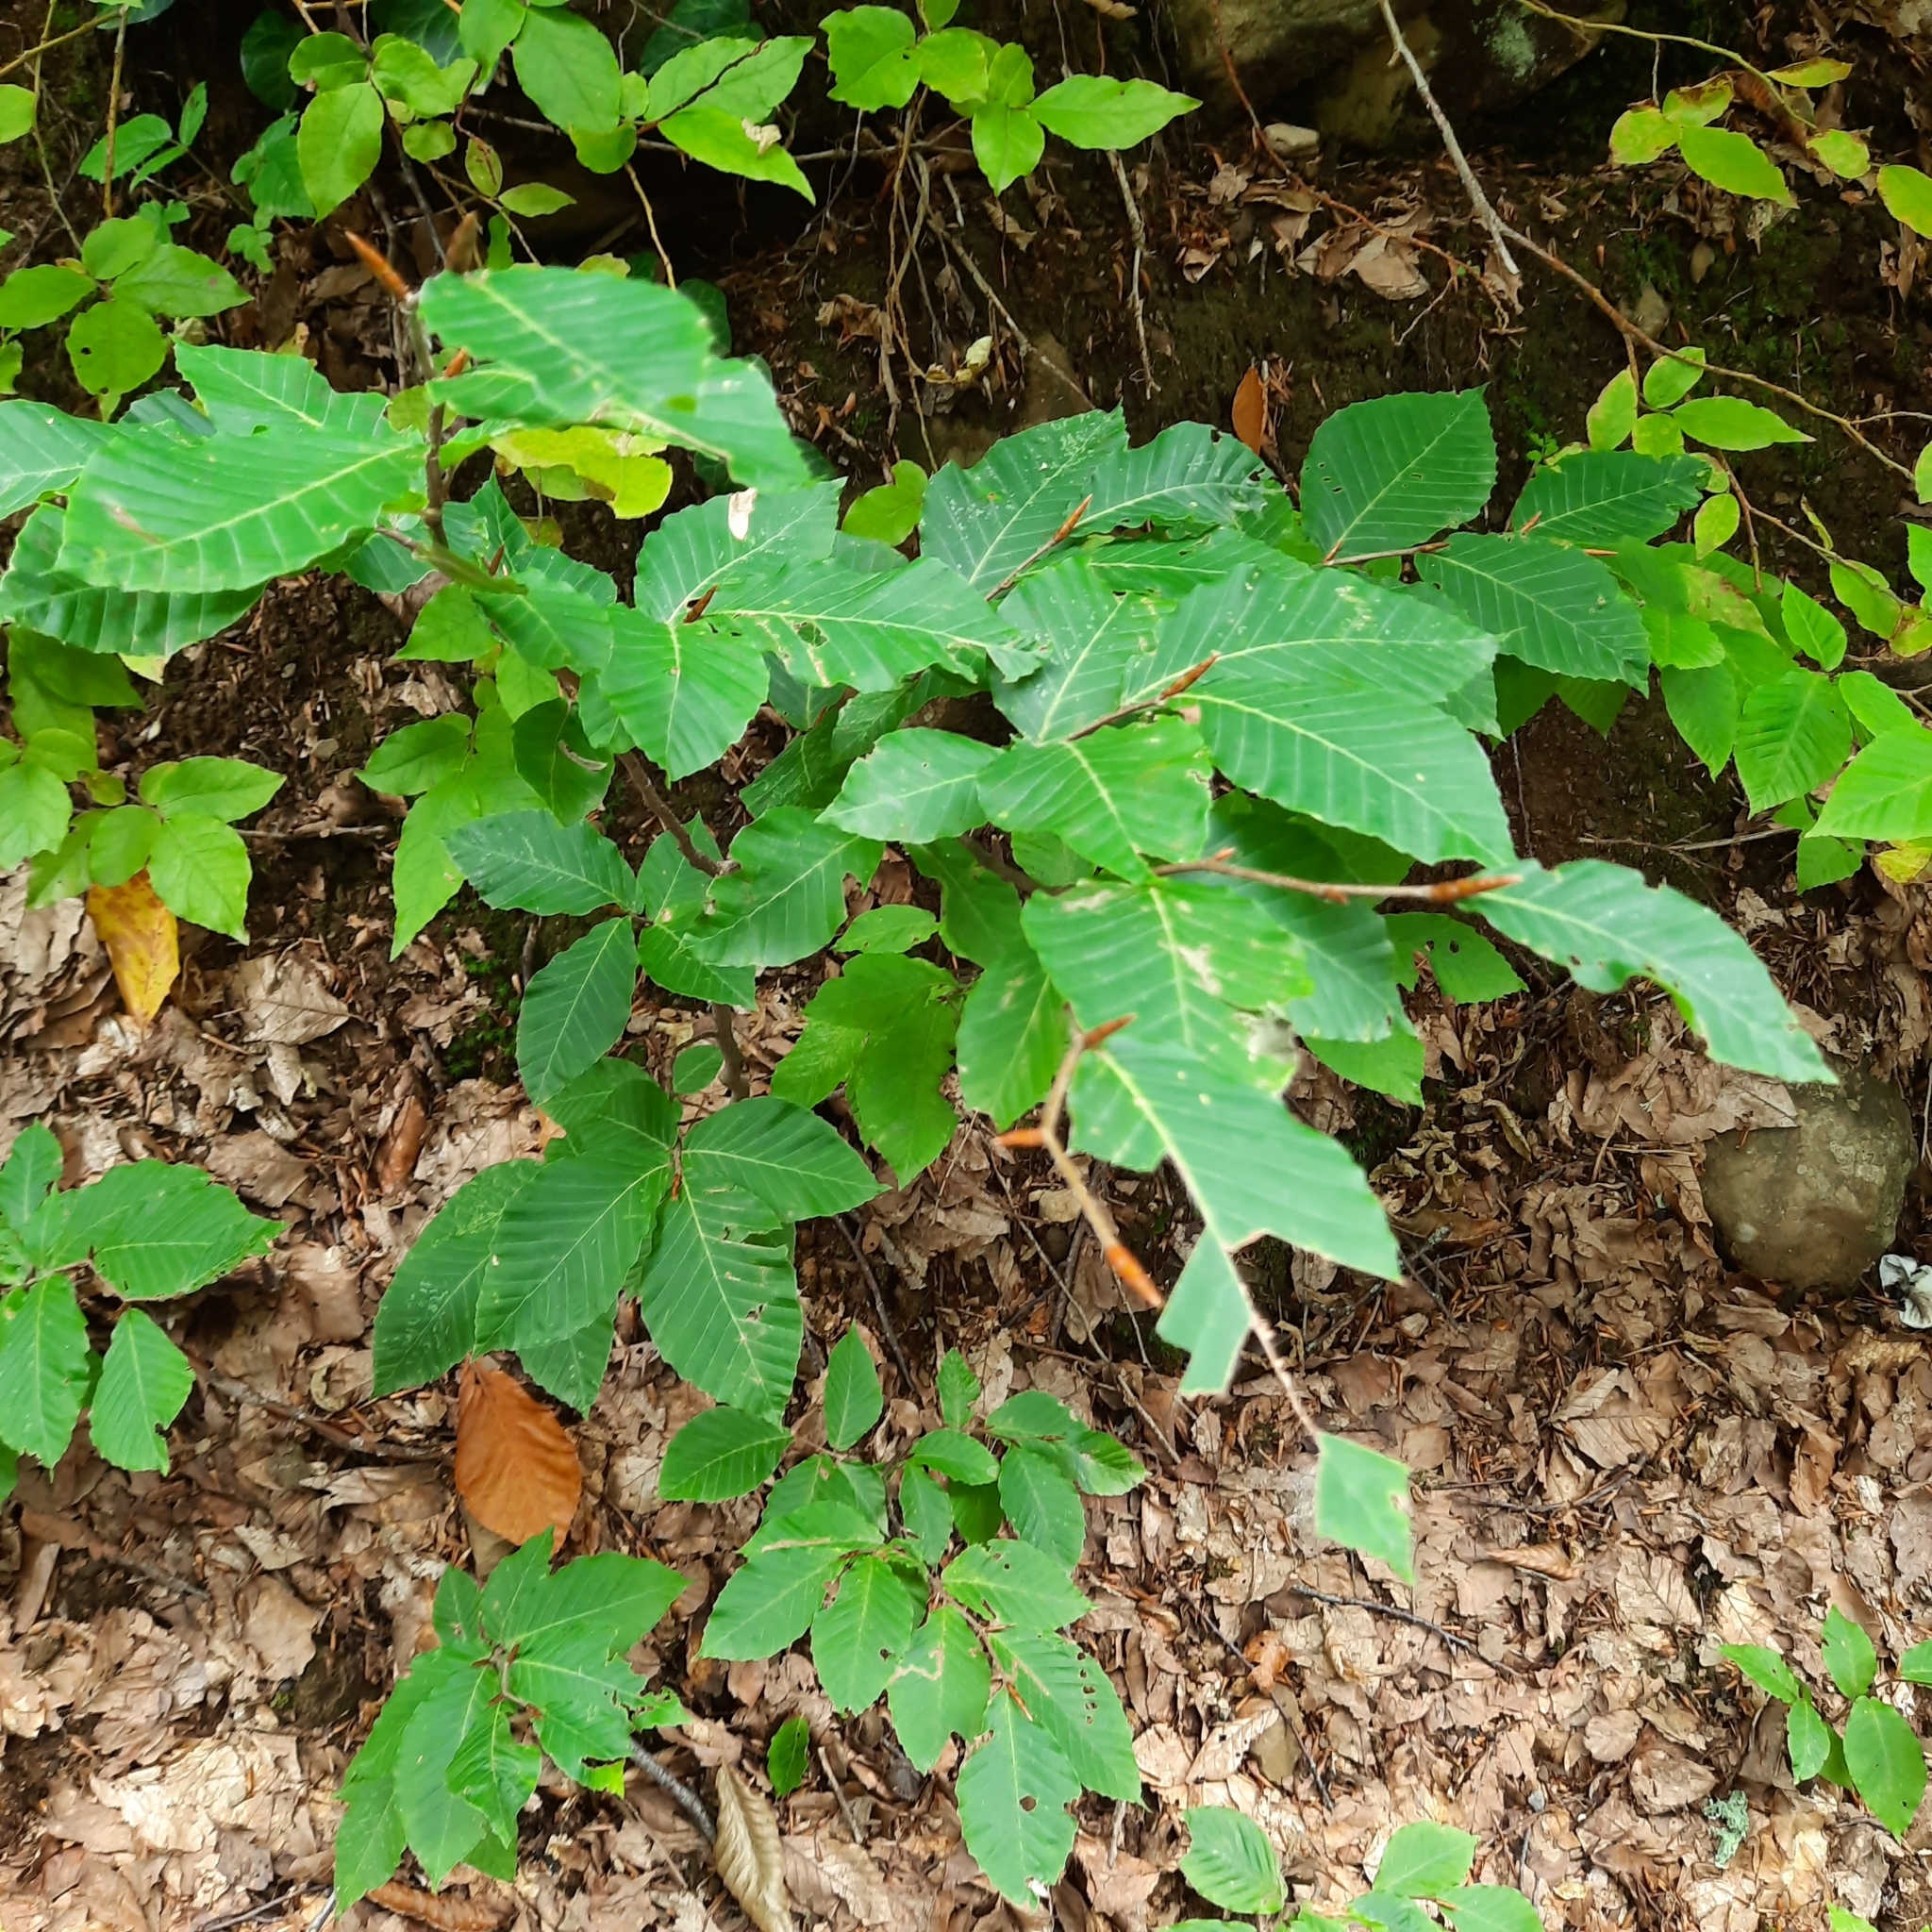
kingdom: Plantae
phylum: Tracheophyta
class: Magnoliopsida
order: Fagales
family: Fagaceae
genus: Fagus
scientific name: Fagus orientalis
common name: Oriental beech
